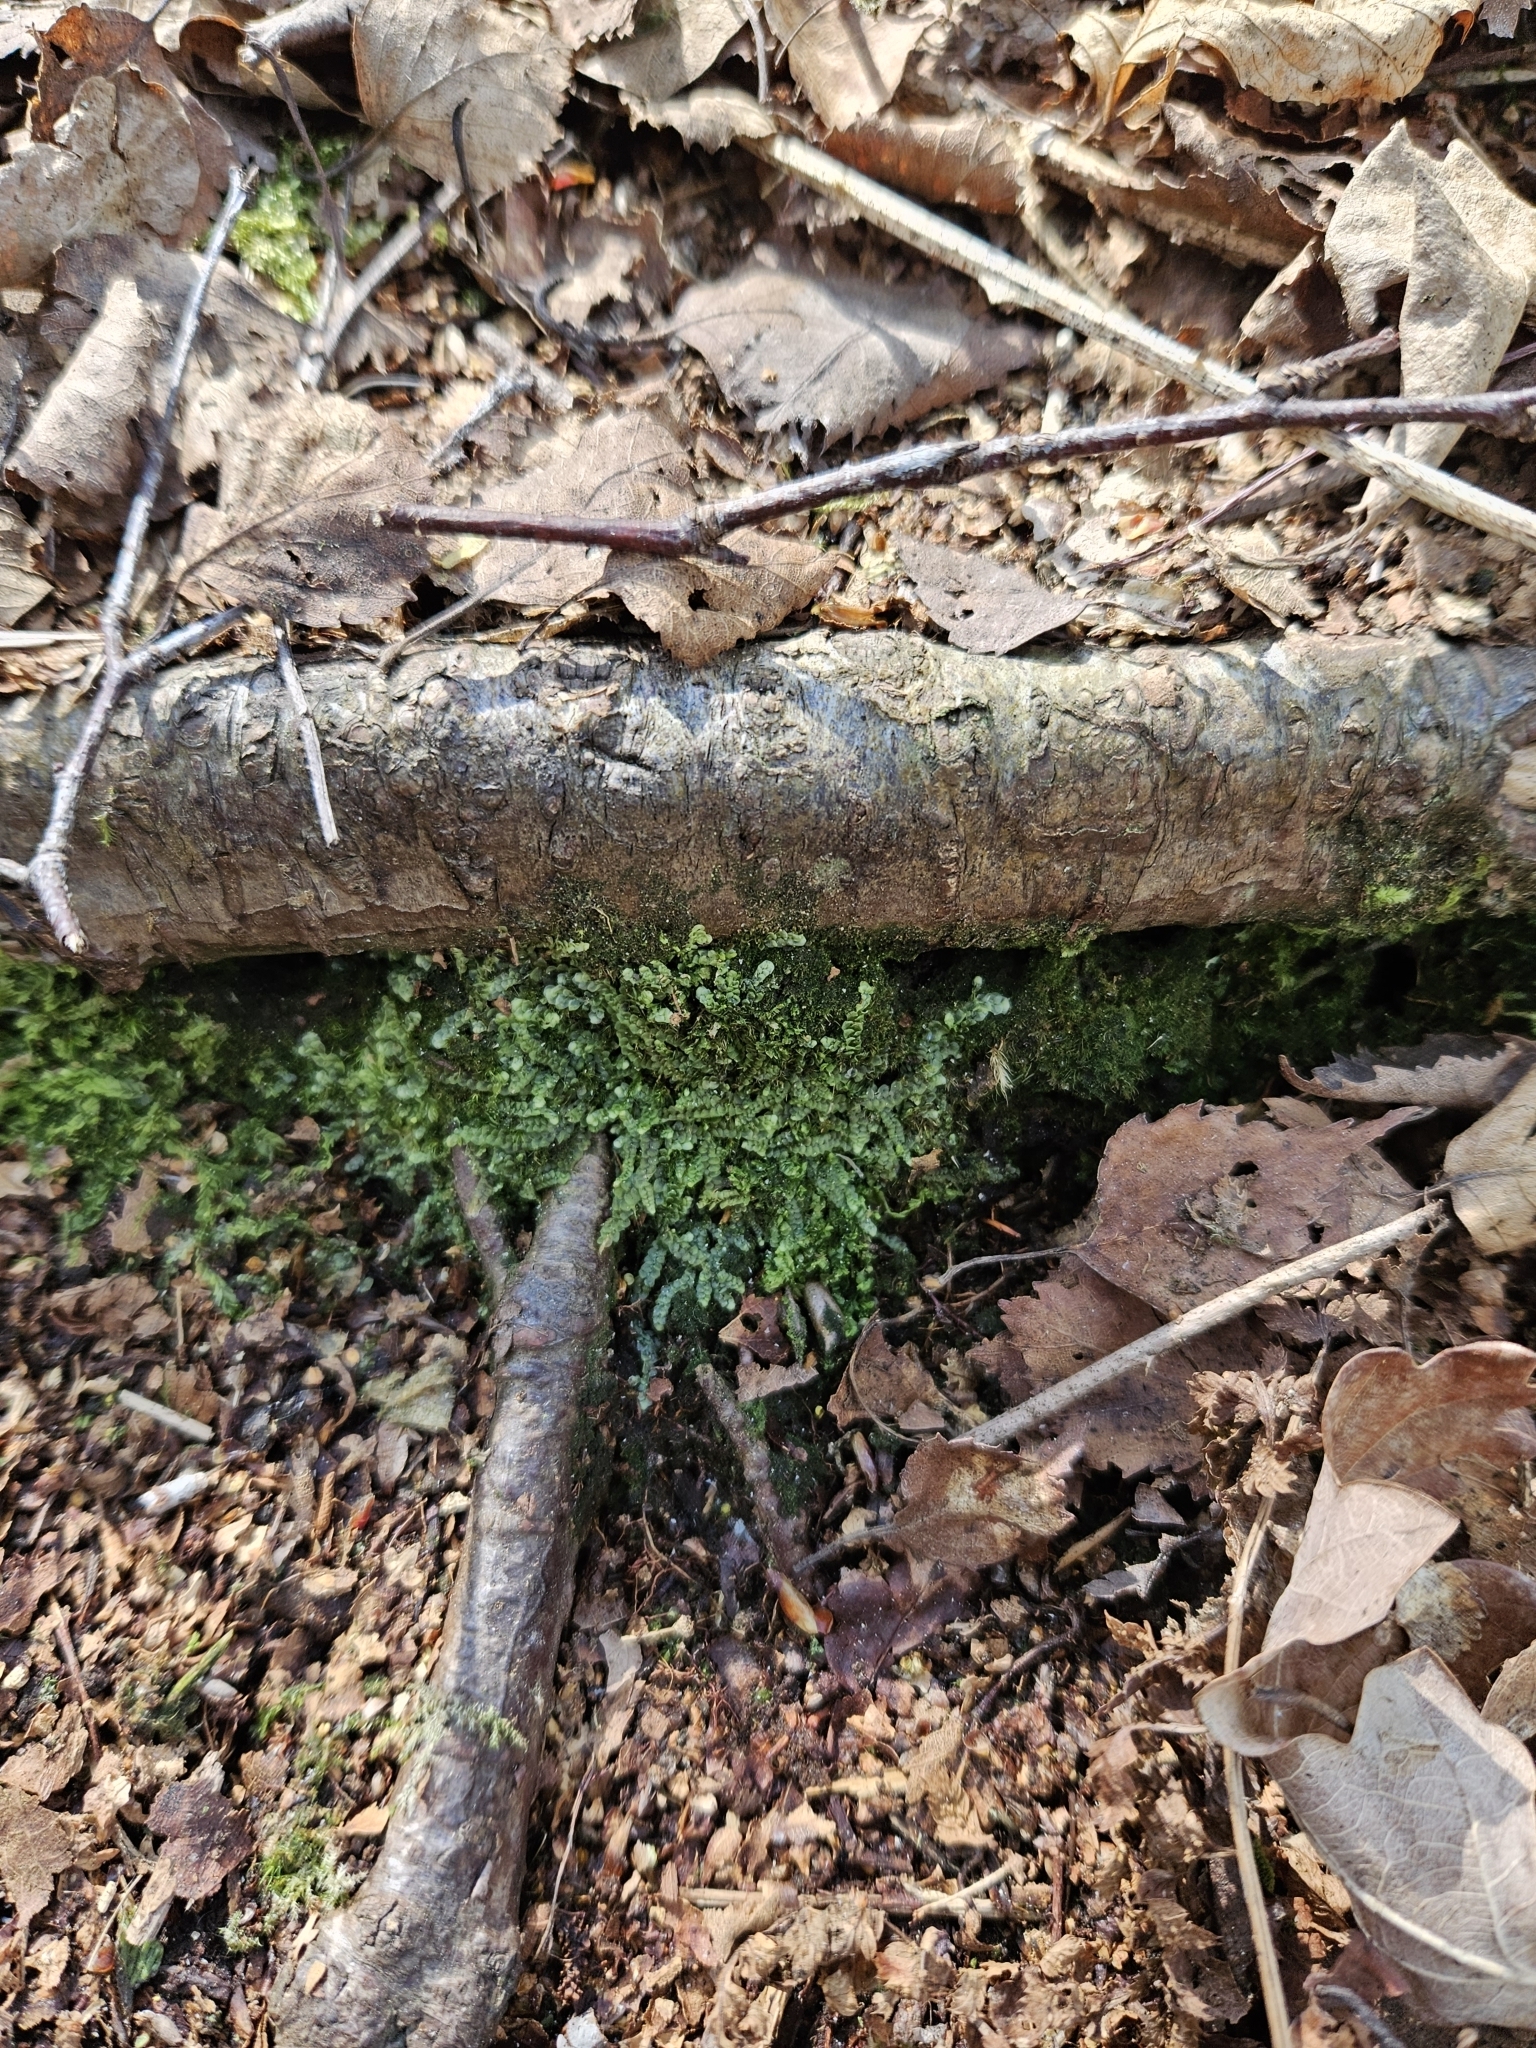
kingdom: Plantae
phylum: Marchantiophyta
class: Jungermanniopsida
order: Jungermanniales
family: Calypogeiaceae
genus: Calypogeia
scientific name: Calypogeia muelleriana
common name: Mueller s pouchwort
